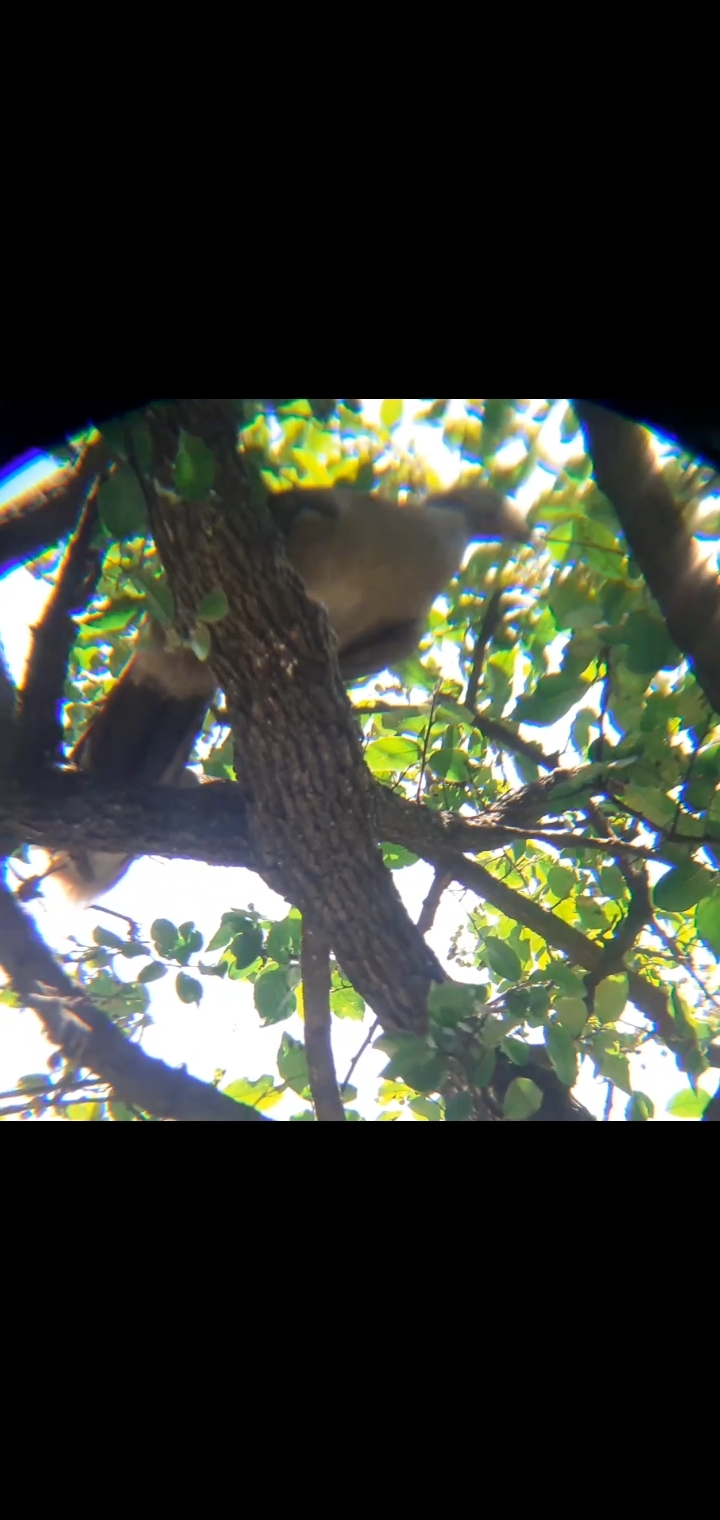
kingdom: Animalia
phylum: Chordata
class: Aves
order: Galliformes
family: Cracidae
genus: Ortalis
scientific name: Ortalis vetula
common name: Plain chachalaca
